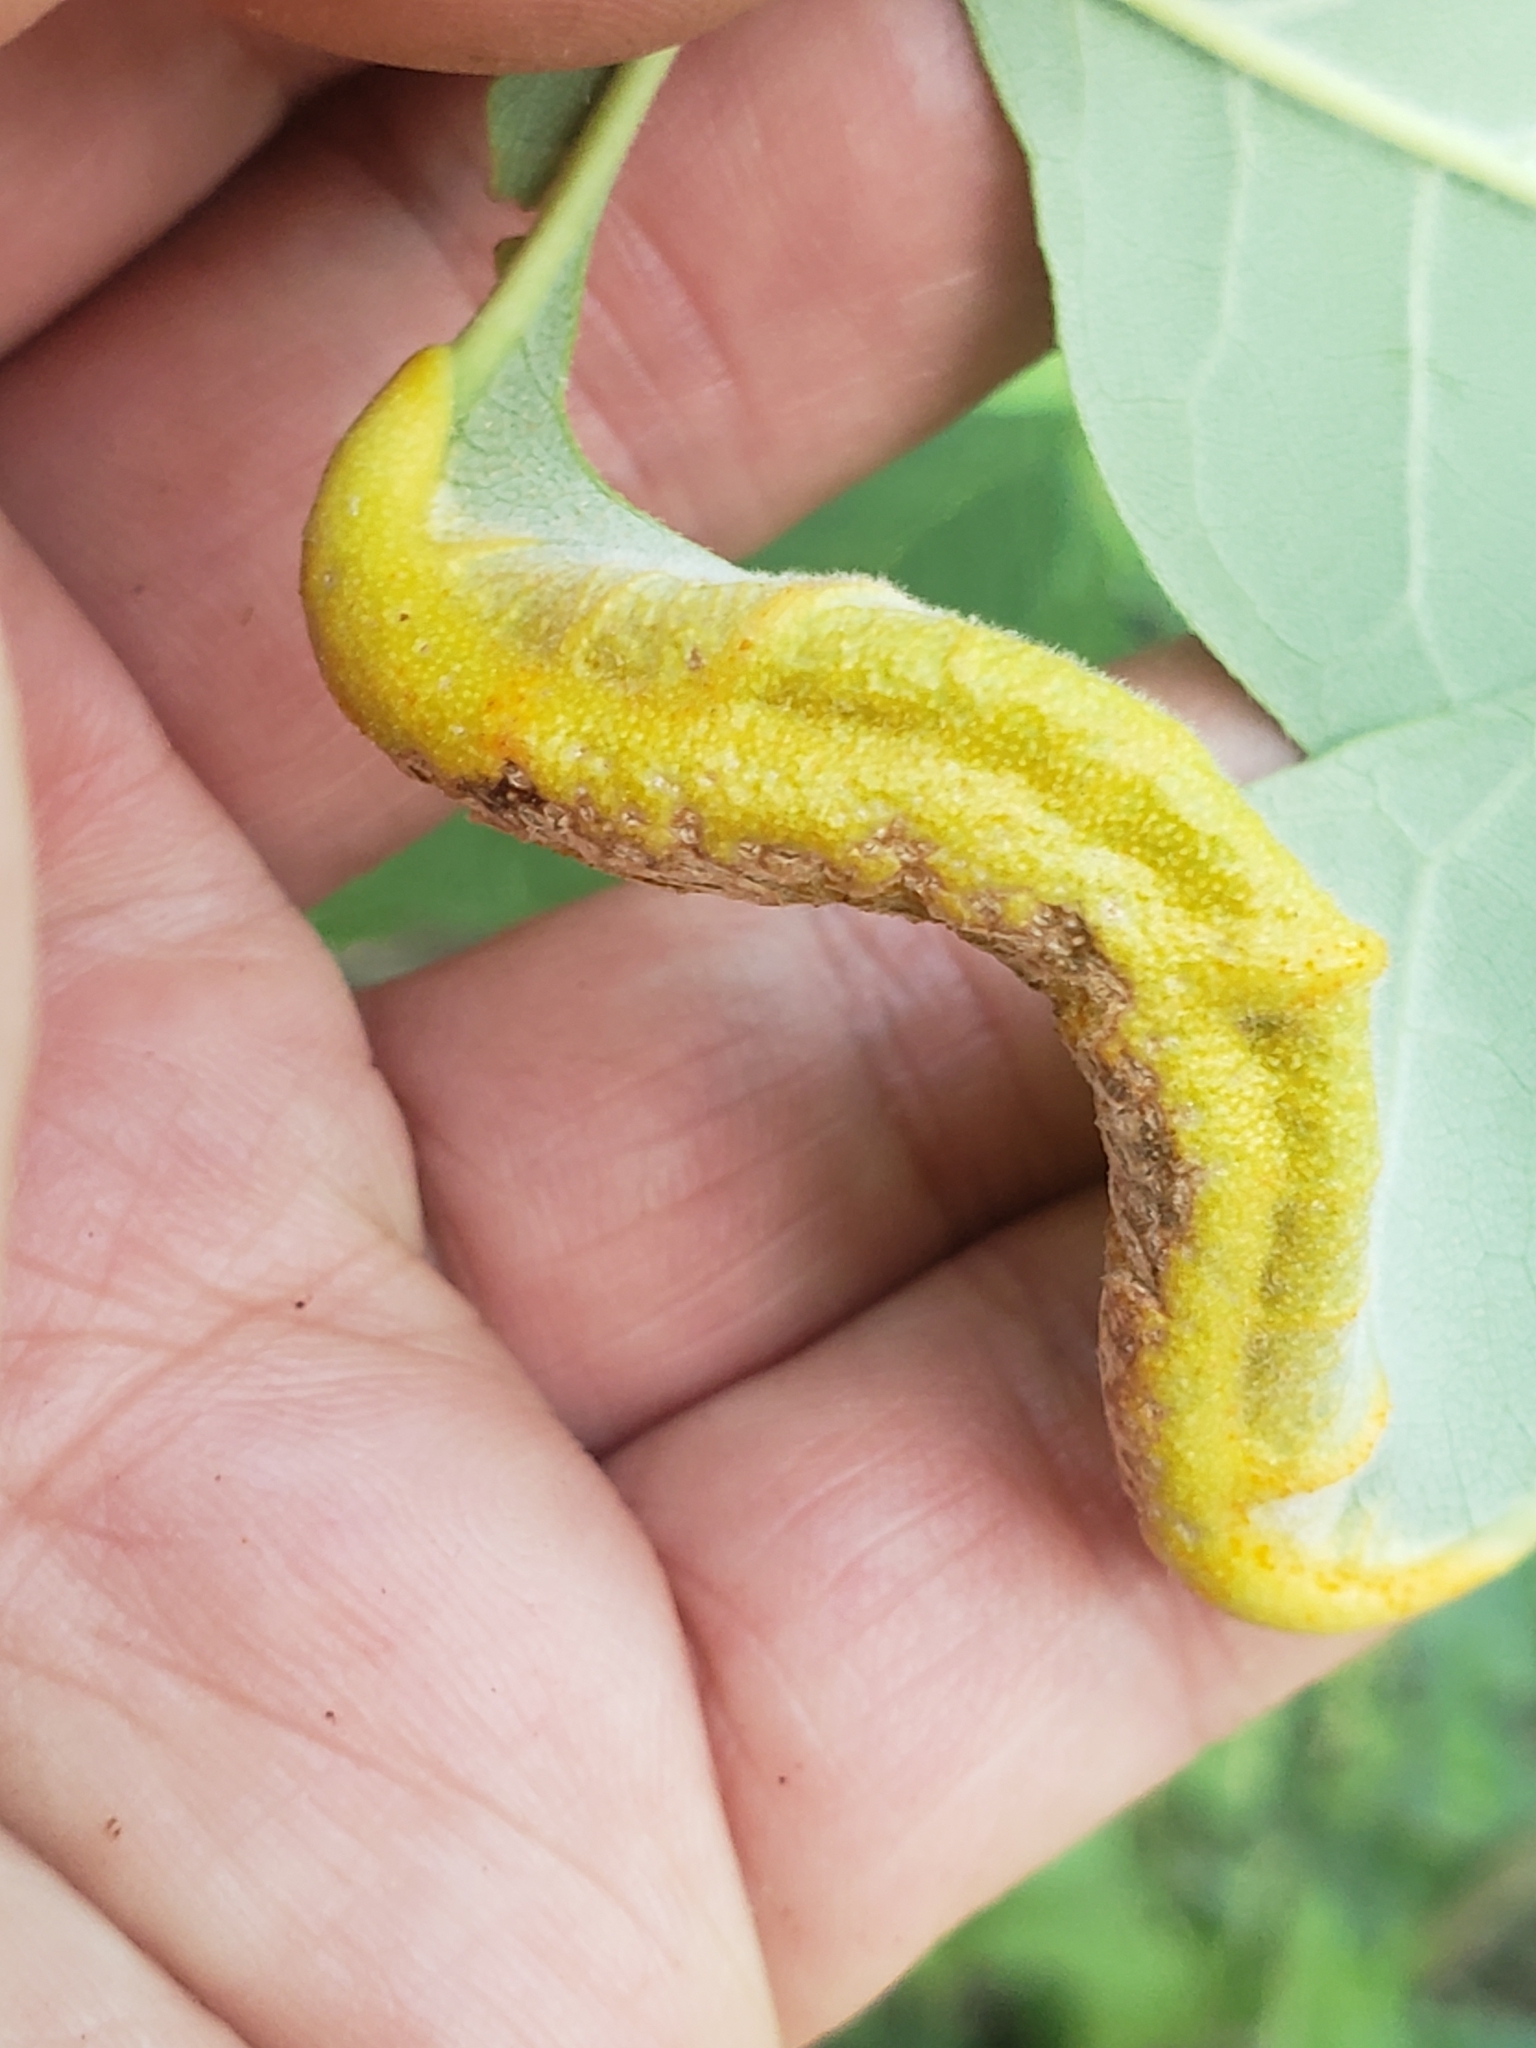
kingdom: Fungi
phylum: Basidiomycota
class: Pucciniomycetes
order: Pucciniales
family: Pucciniaceae
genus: Puccinia
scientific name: Puccinia sparganioidis
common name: Ash rust
